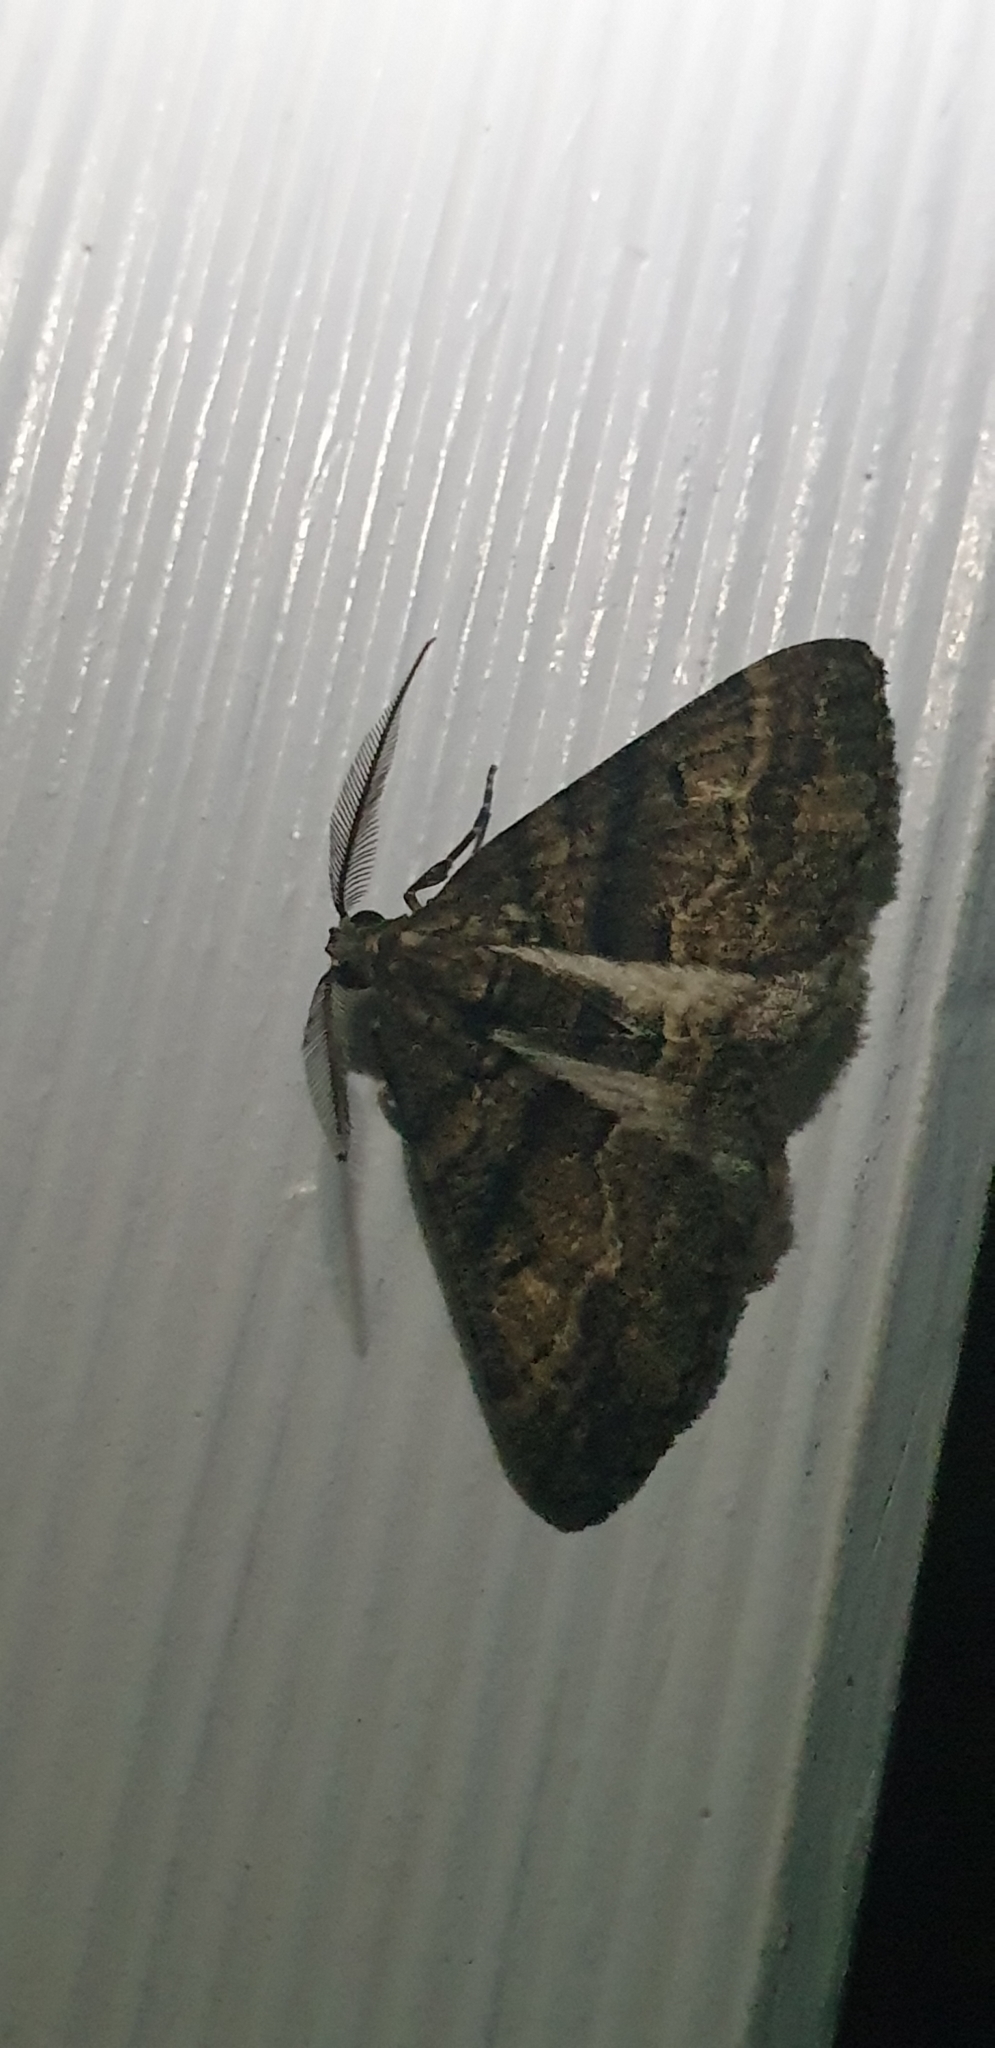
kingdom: Animalia
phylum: Arthropoda
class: Insecta
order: Lepidoptera
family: Geometridae
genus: Lipogya
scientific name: Lipogya eutheta
